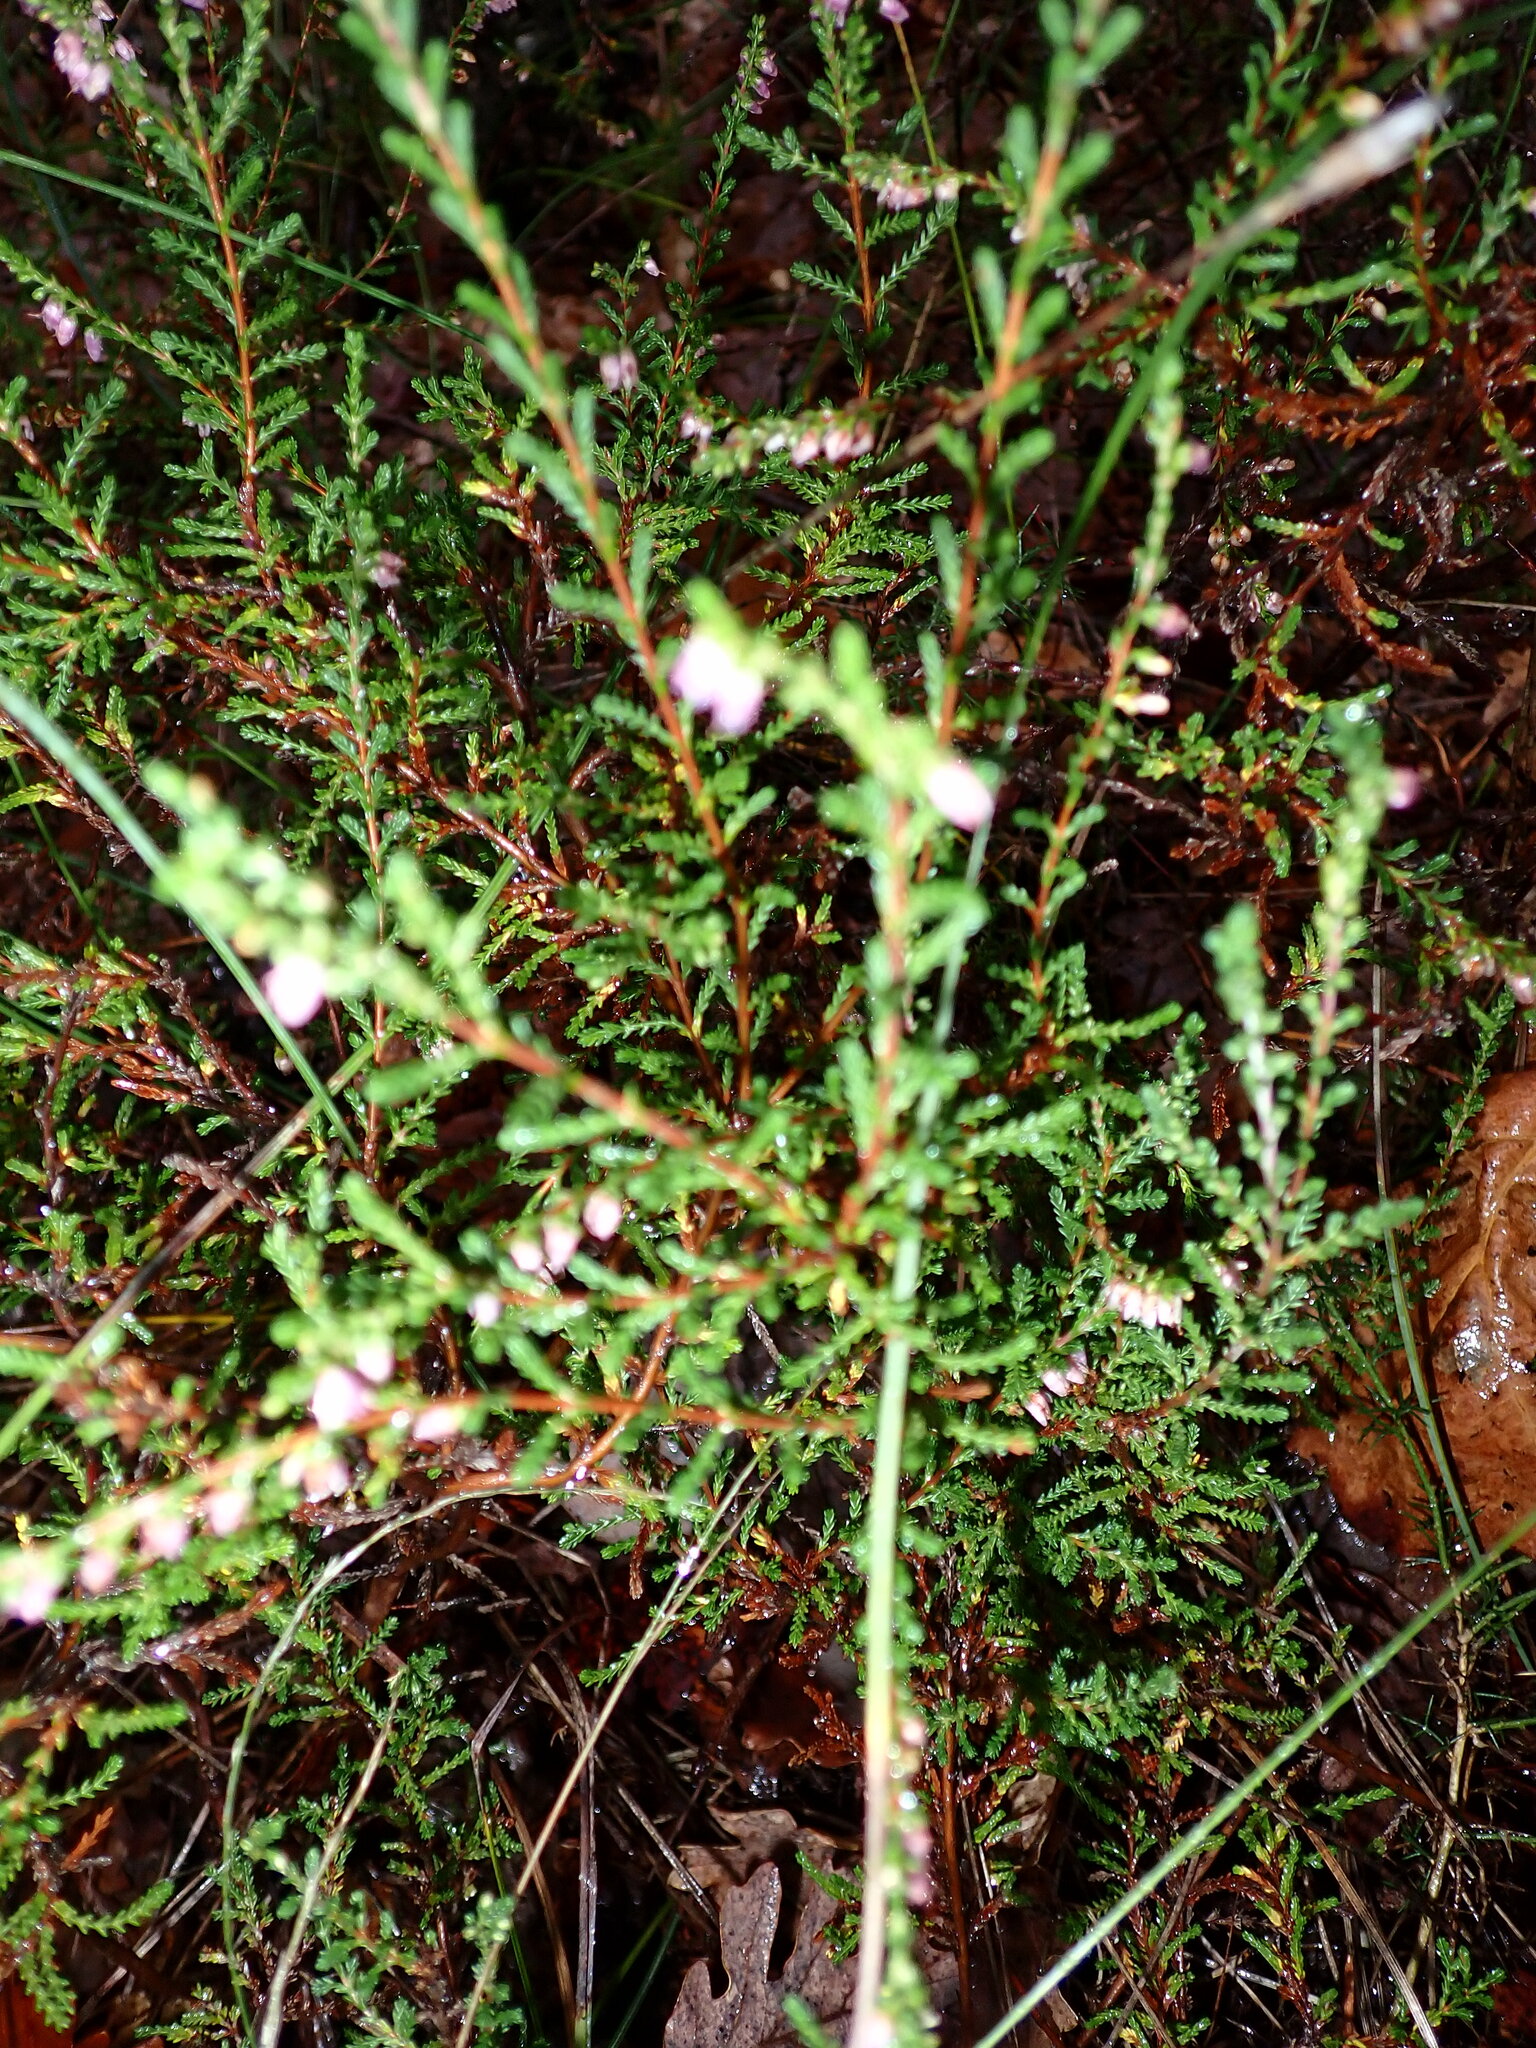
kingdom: Plantae
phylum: Tracheophyta
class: Magnoliopsida
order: Ericales
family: Ericaceae
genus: Calluna
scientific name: Calluna vulgaris
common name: Heather
